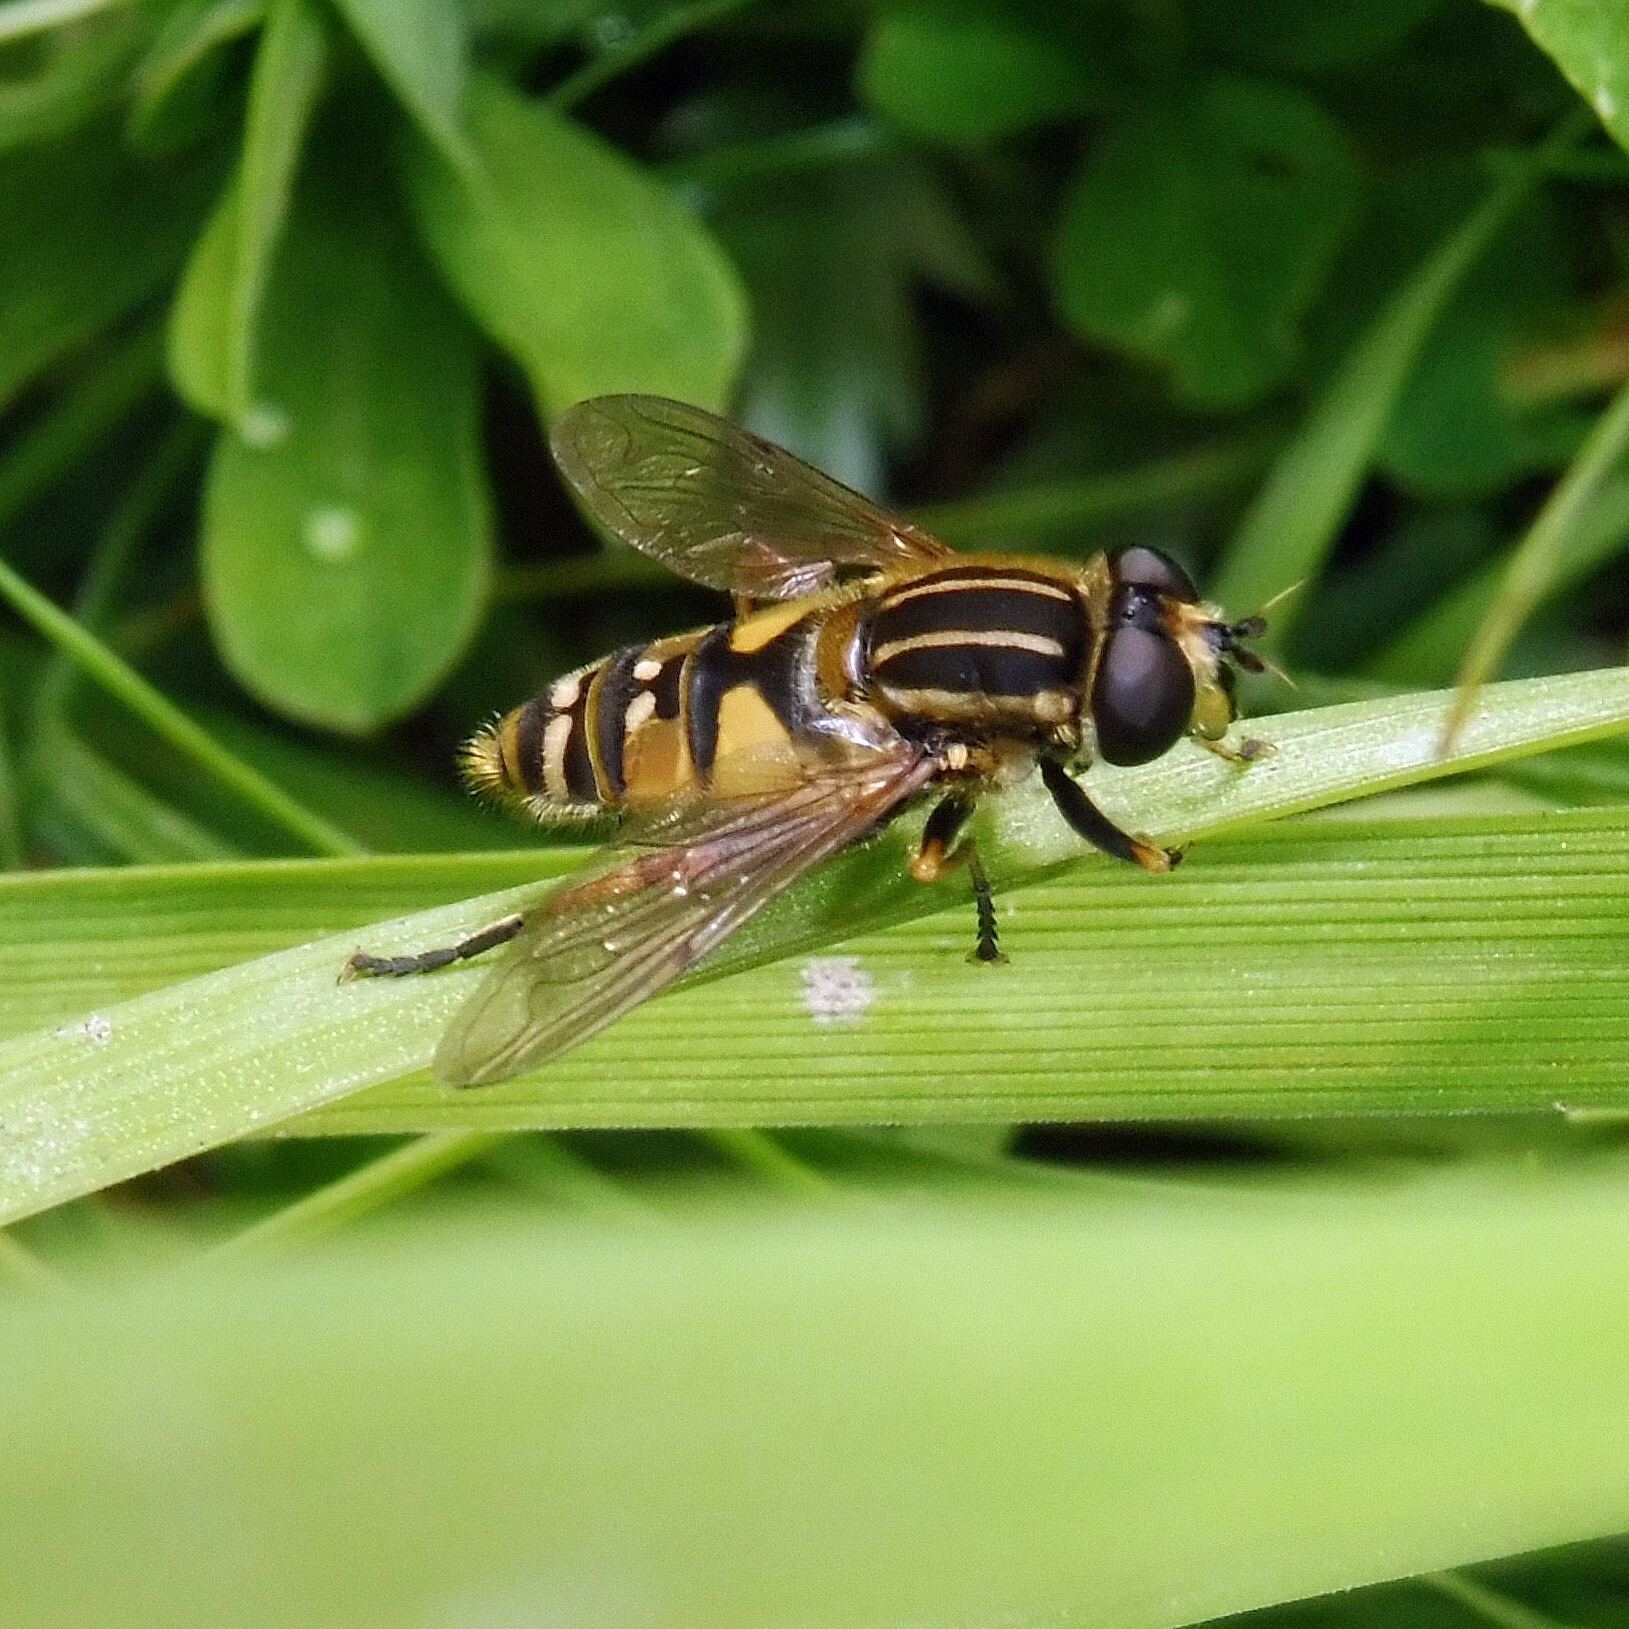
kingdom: Animalia
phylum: Arthropoda
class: Insecta
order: Diptera
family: Syrphidae
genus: Helophilus
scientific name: Helophilus pendulus
